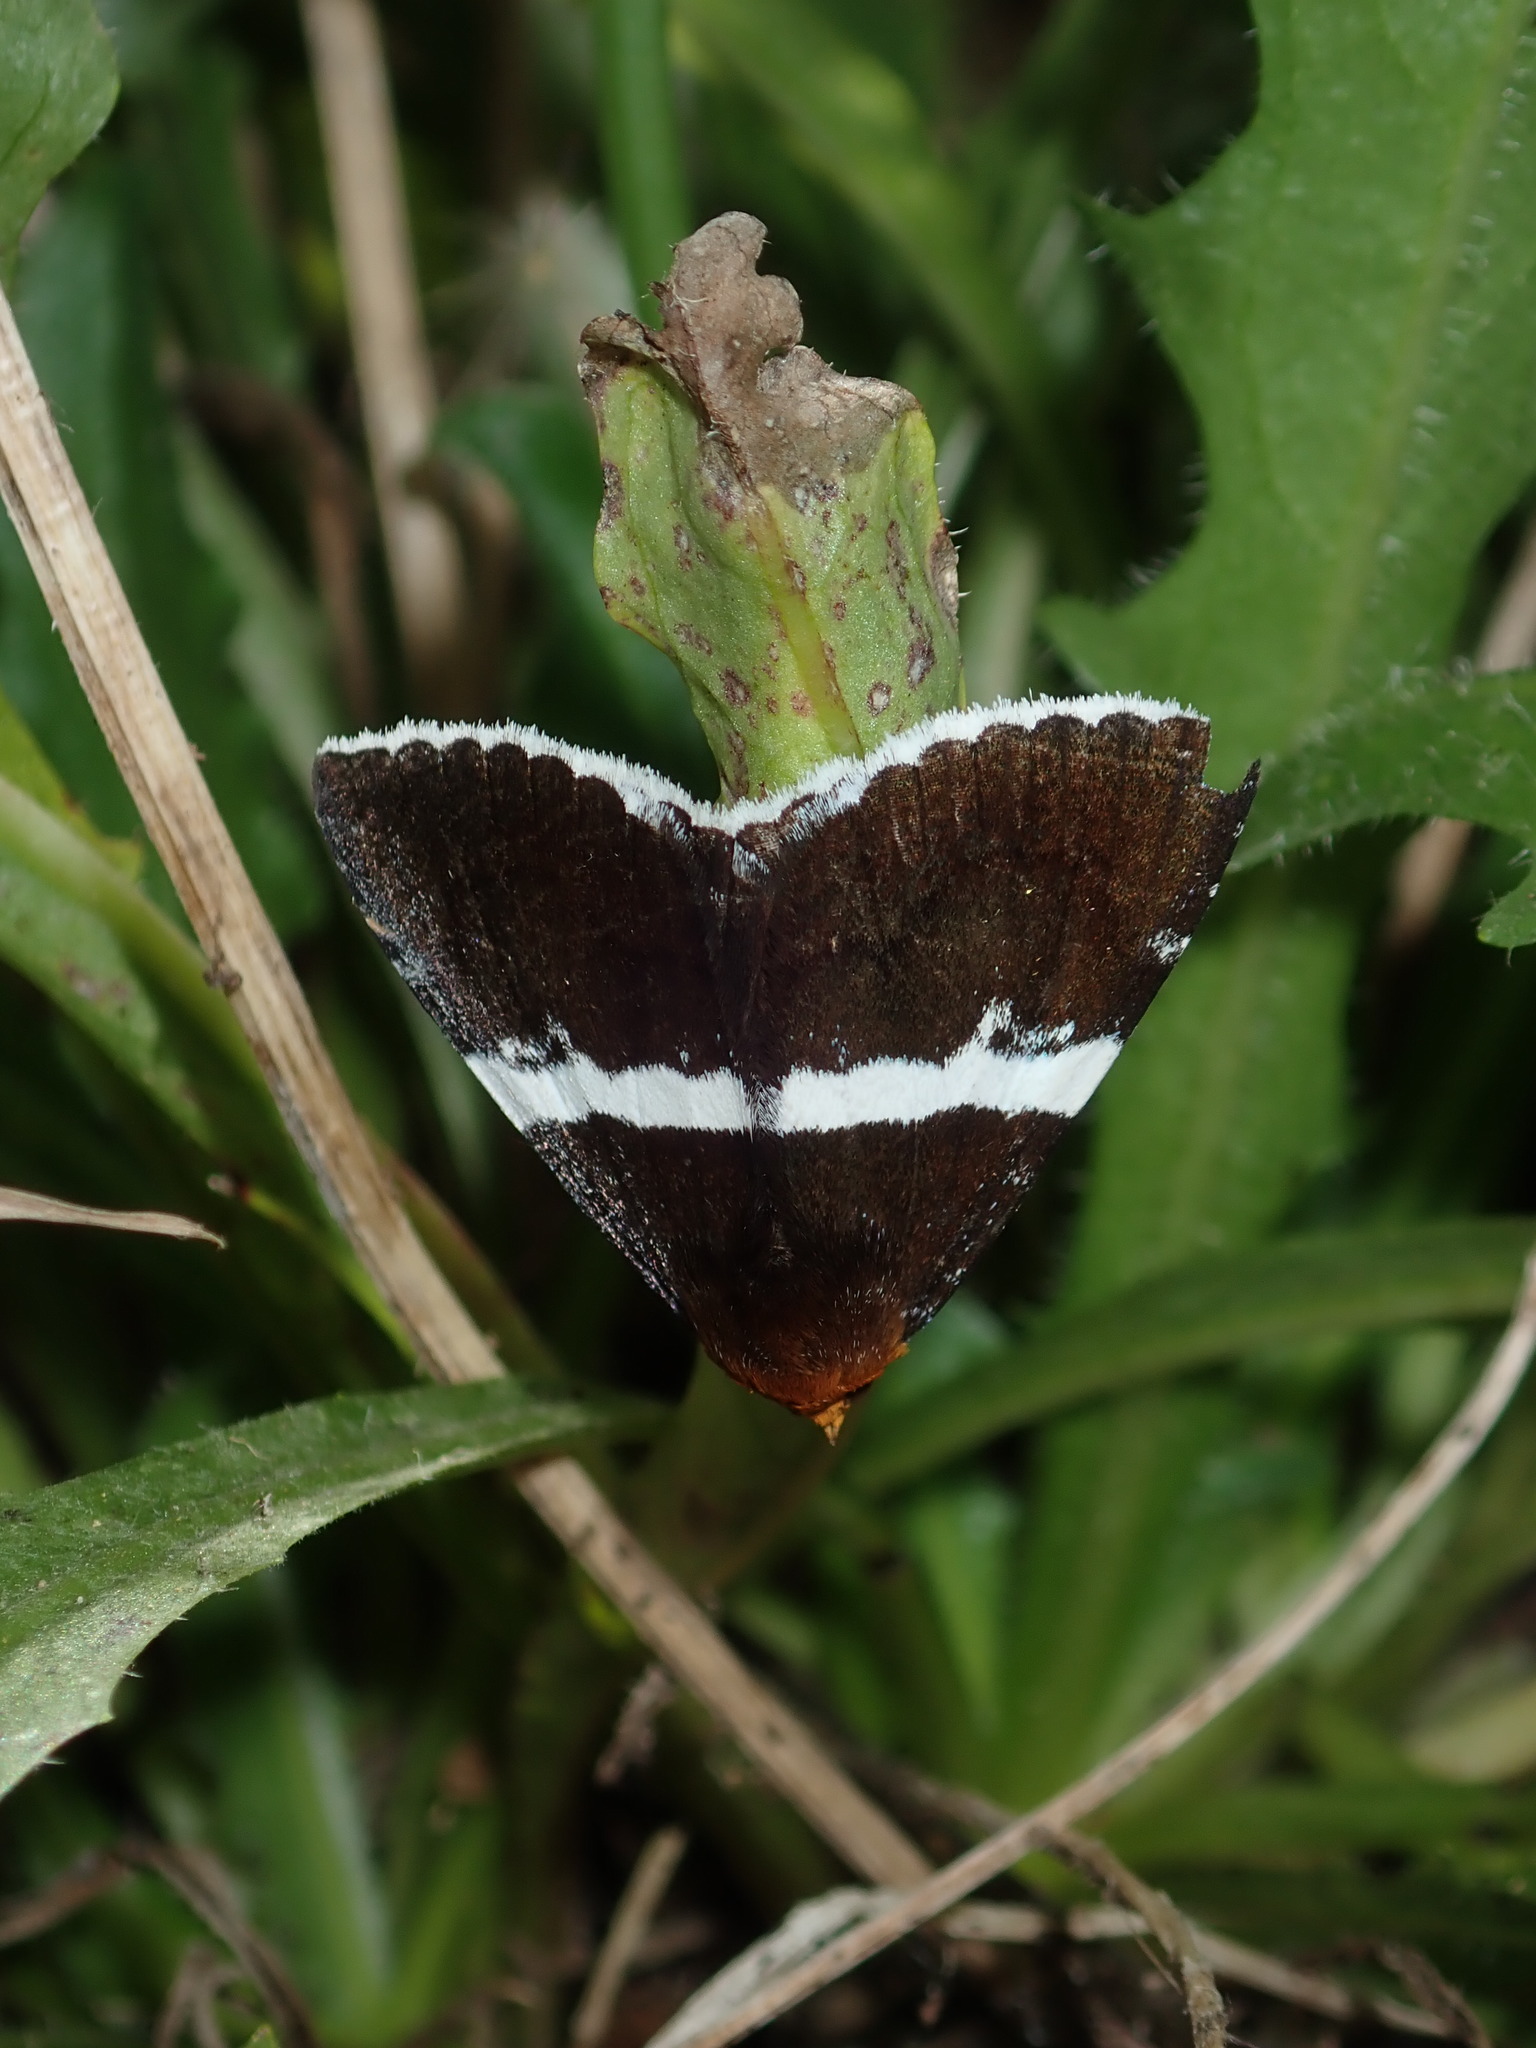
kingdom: Animalia
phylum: Arthropoda
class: Insecta
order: Lepidoptera
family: Erebidae
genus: Buzara
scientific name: Buzara frontinus
